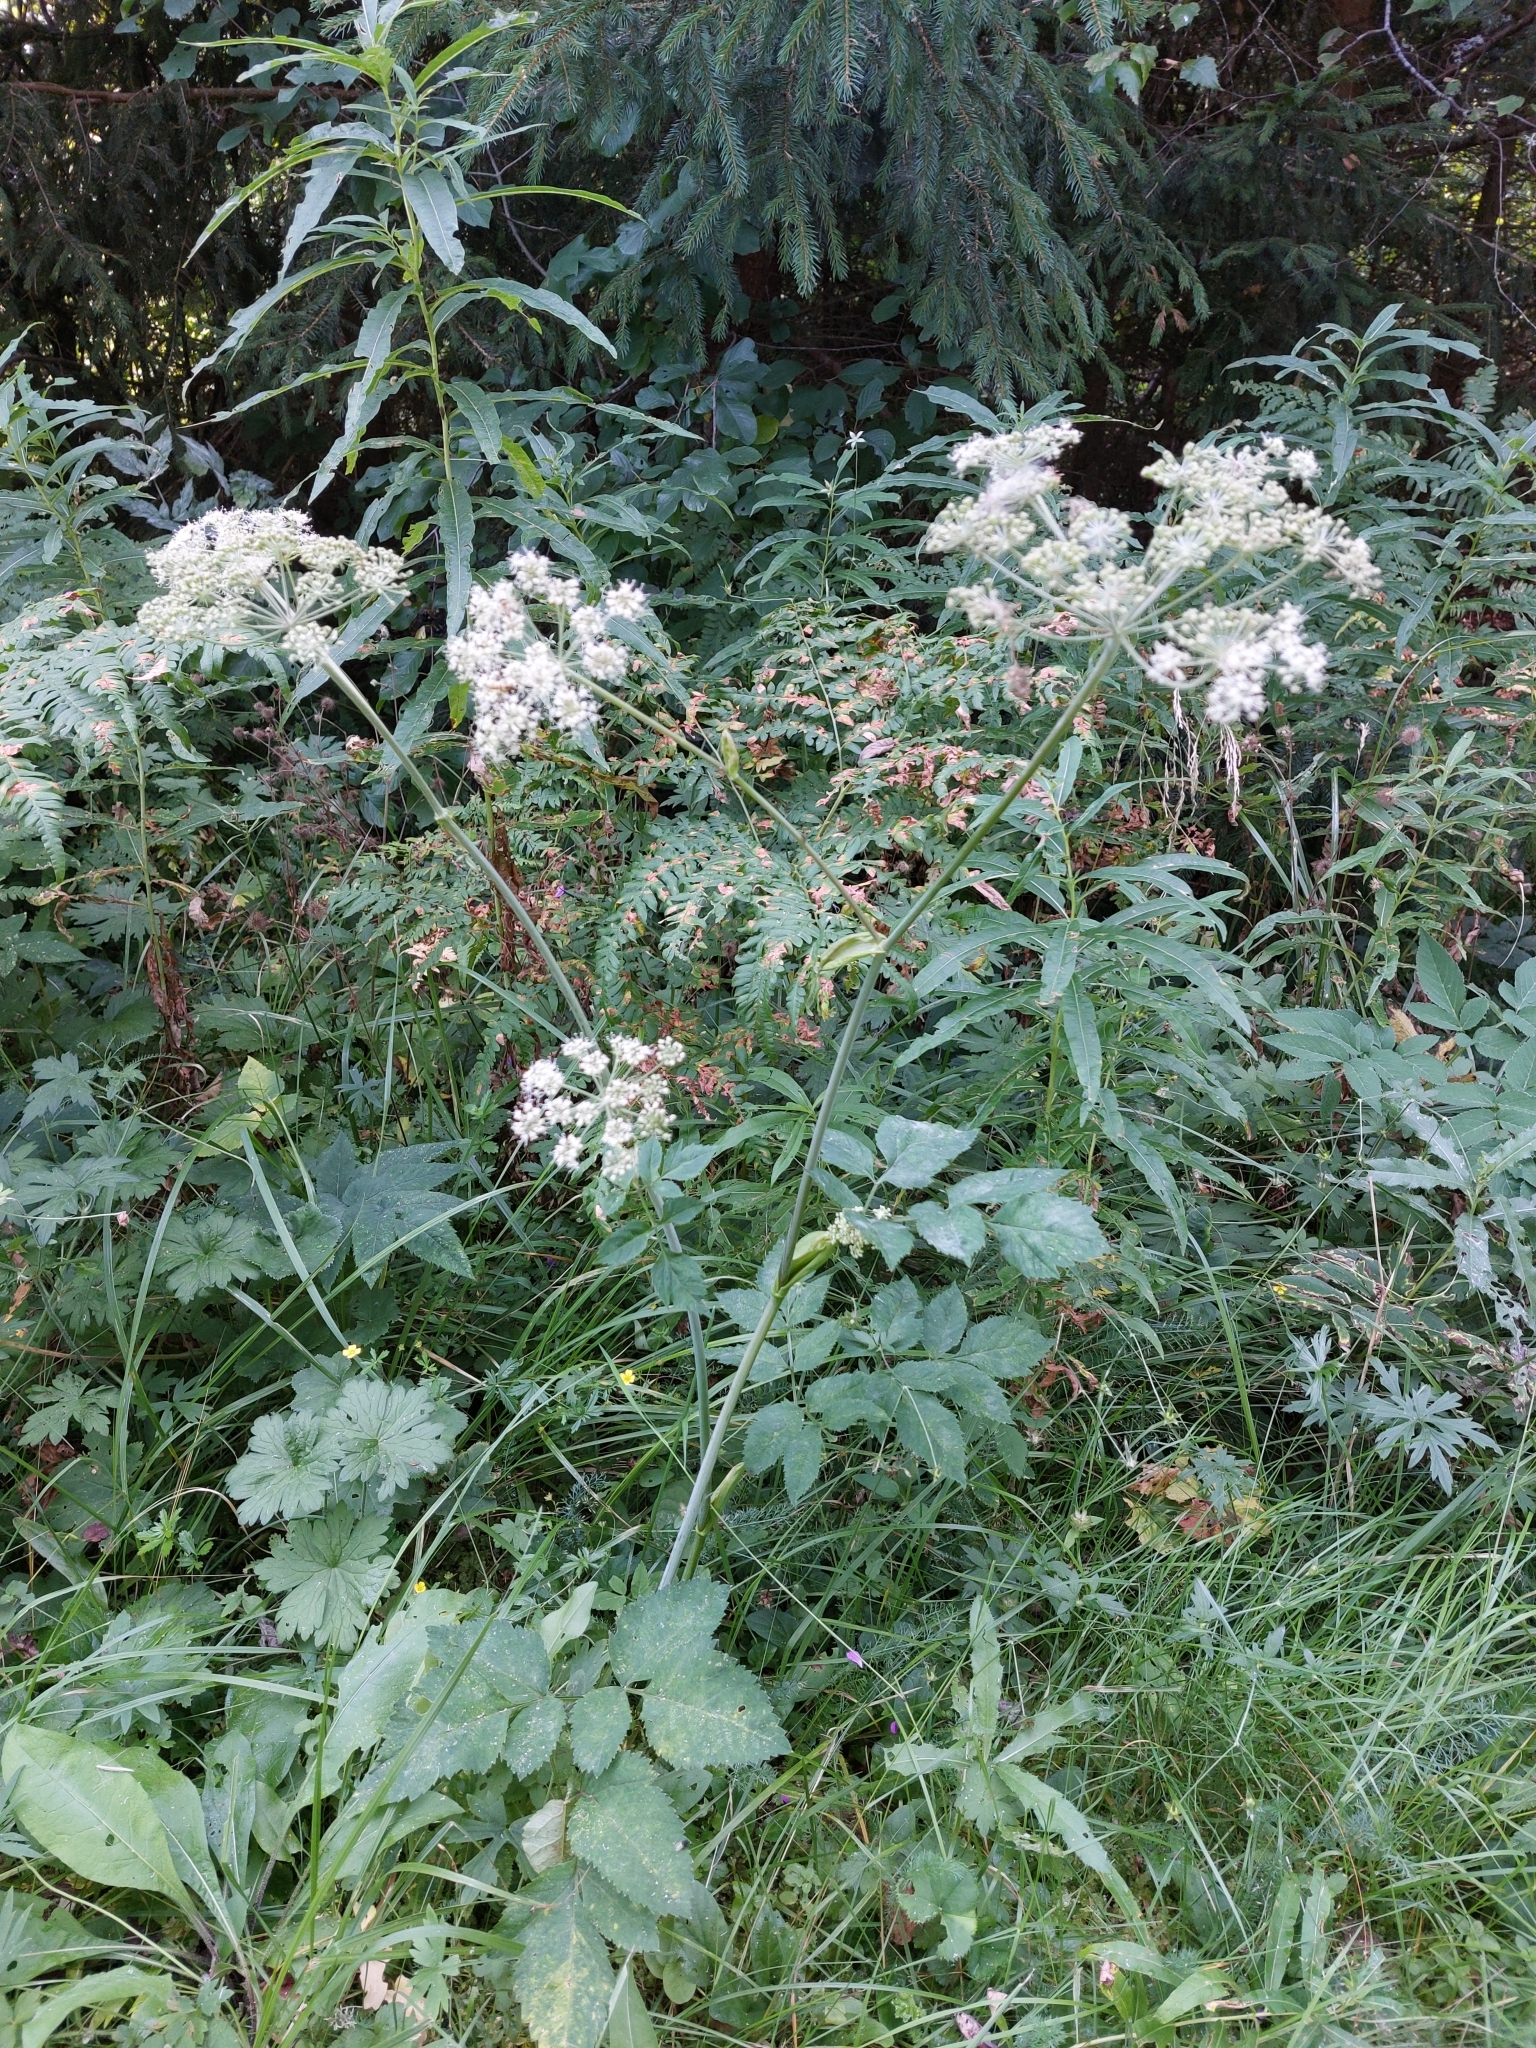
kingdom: Plantae
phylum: Tracheophyta
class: Magnoliopsida
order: Apiales
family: Apiaceae
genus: Angelica
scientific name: Angelica sylvestris
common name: Wild angelica
